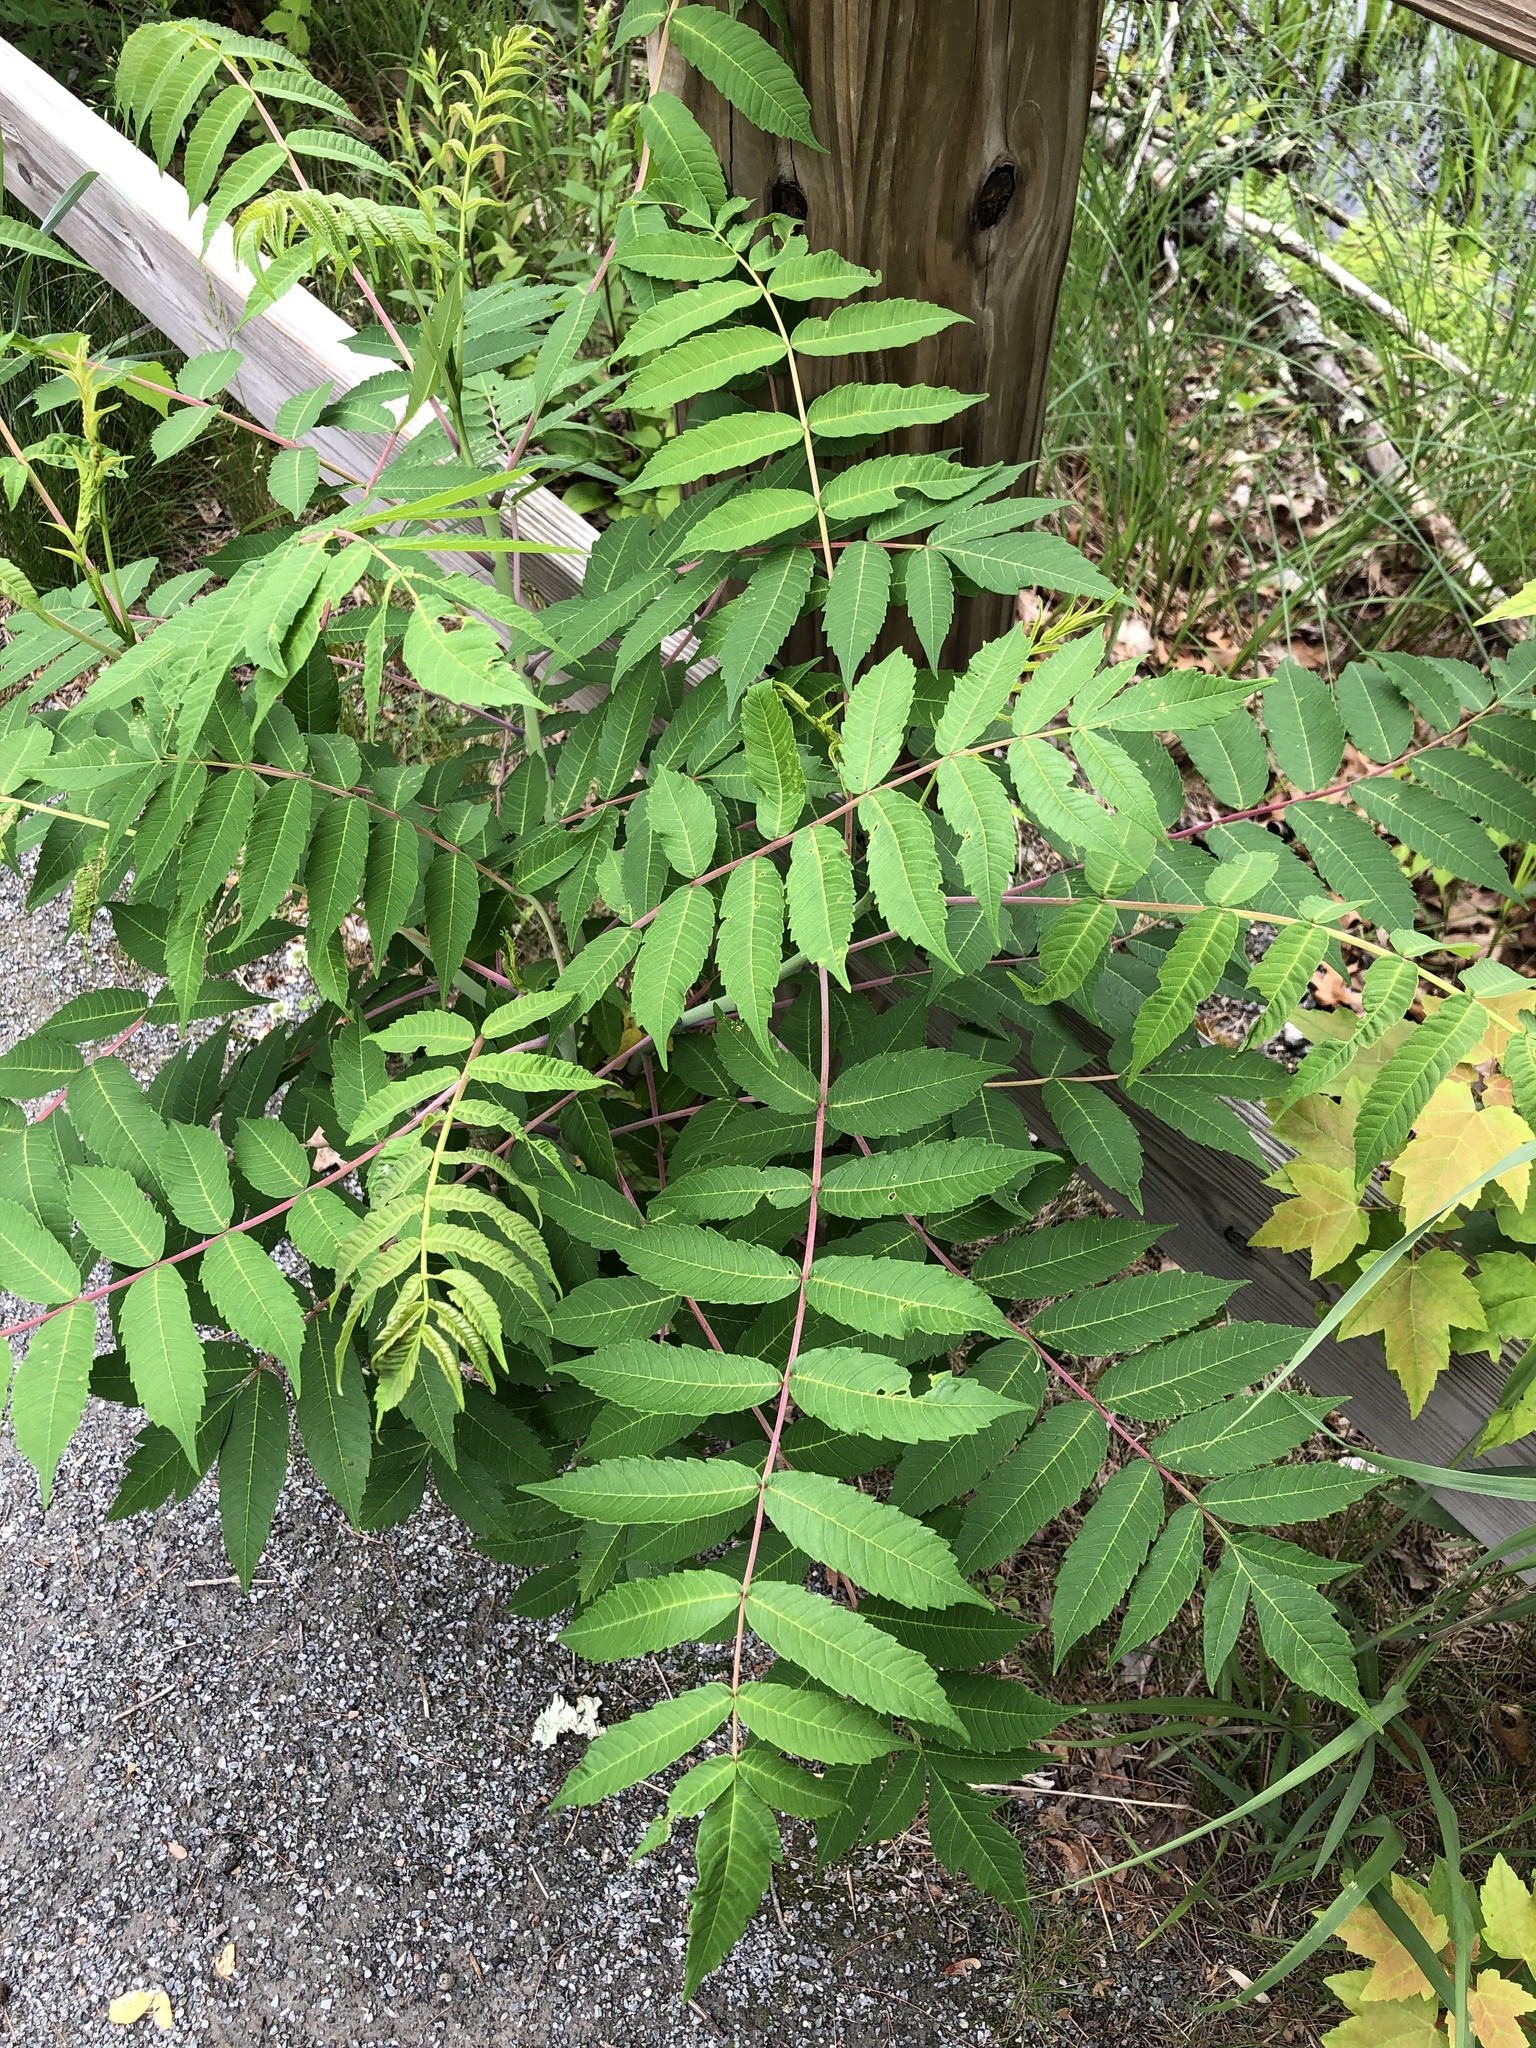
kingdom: Plantae
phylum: Tracheophyta
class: Magnoliopsida
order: Sapindales
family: Anacardiaceae
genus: Rhus
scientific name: Rhus glabra
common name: Scarlet sumac
